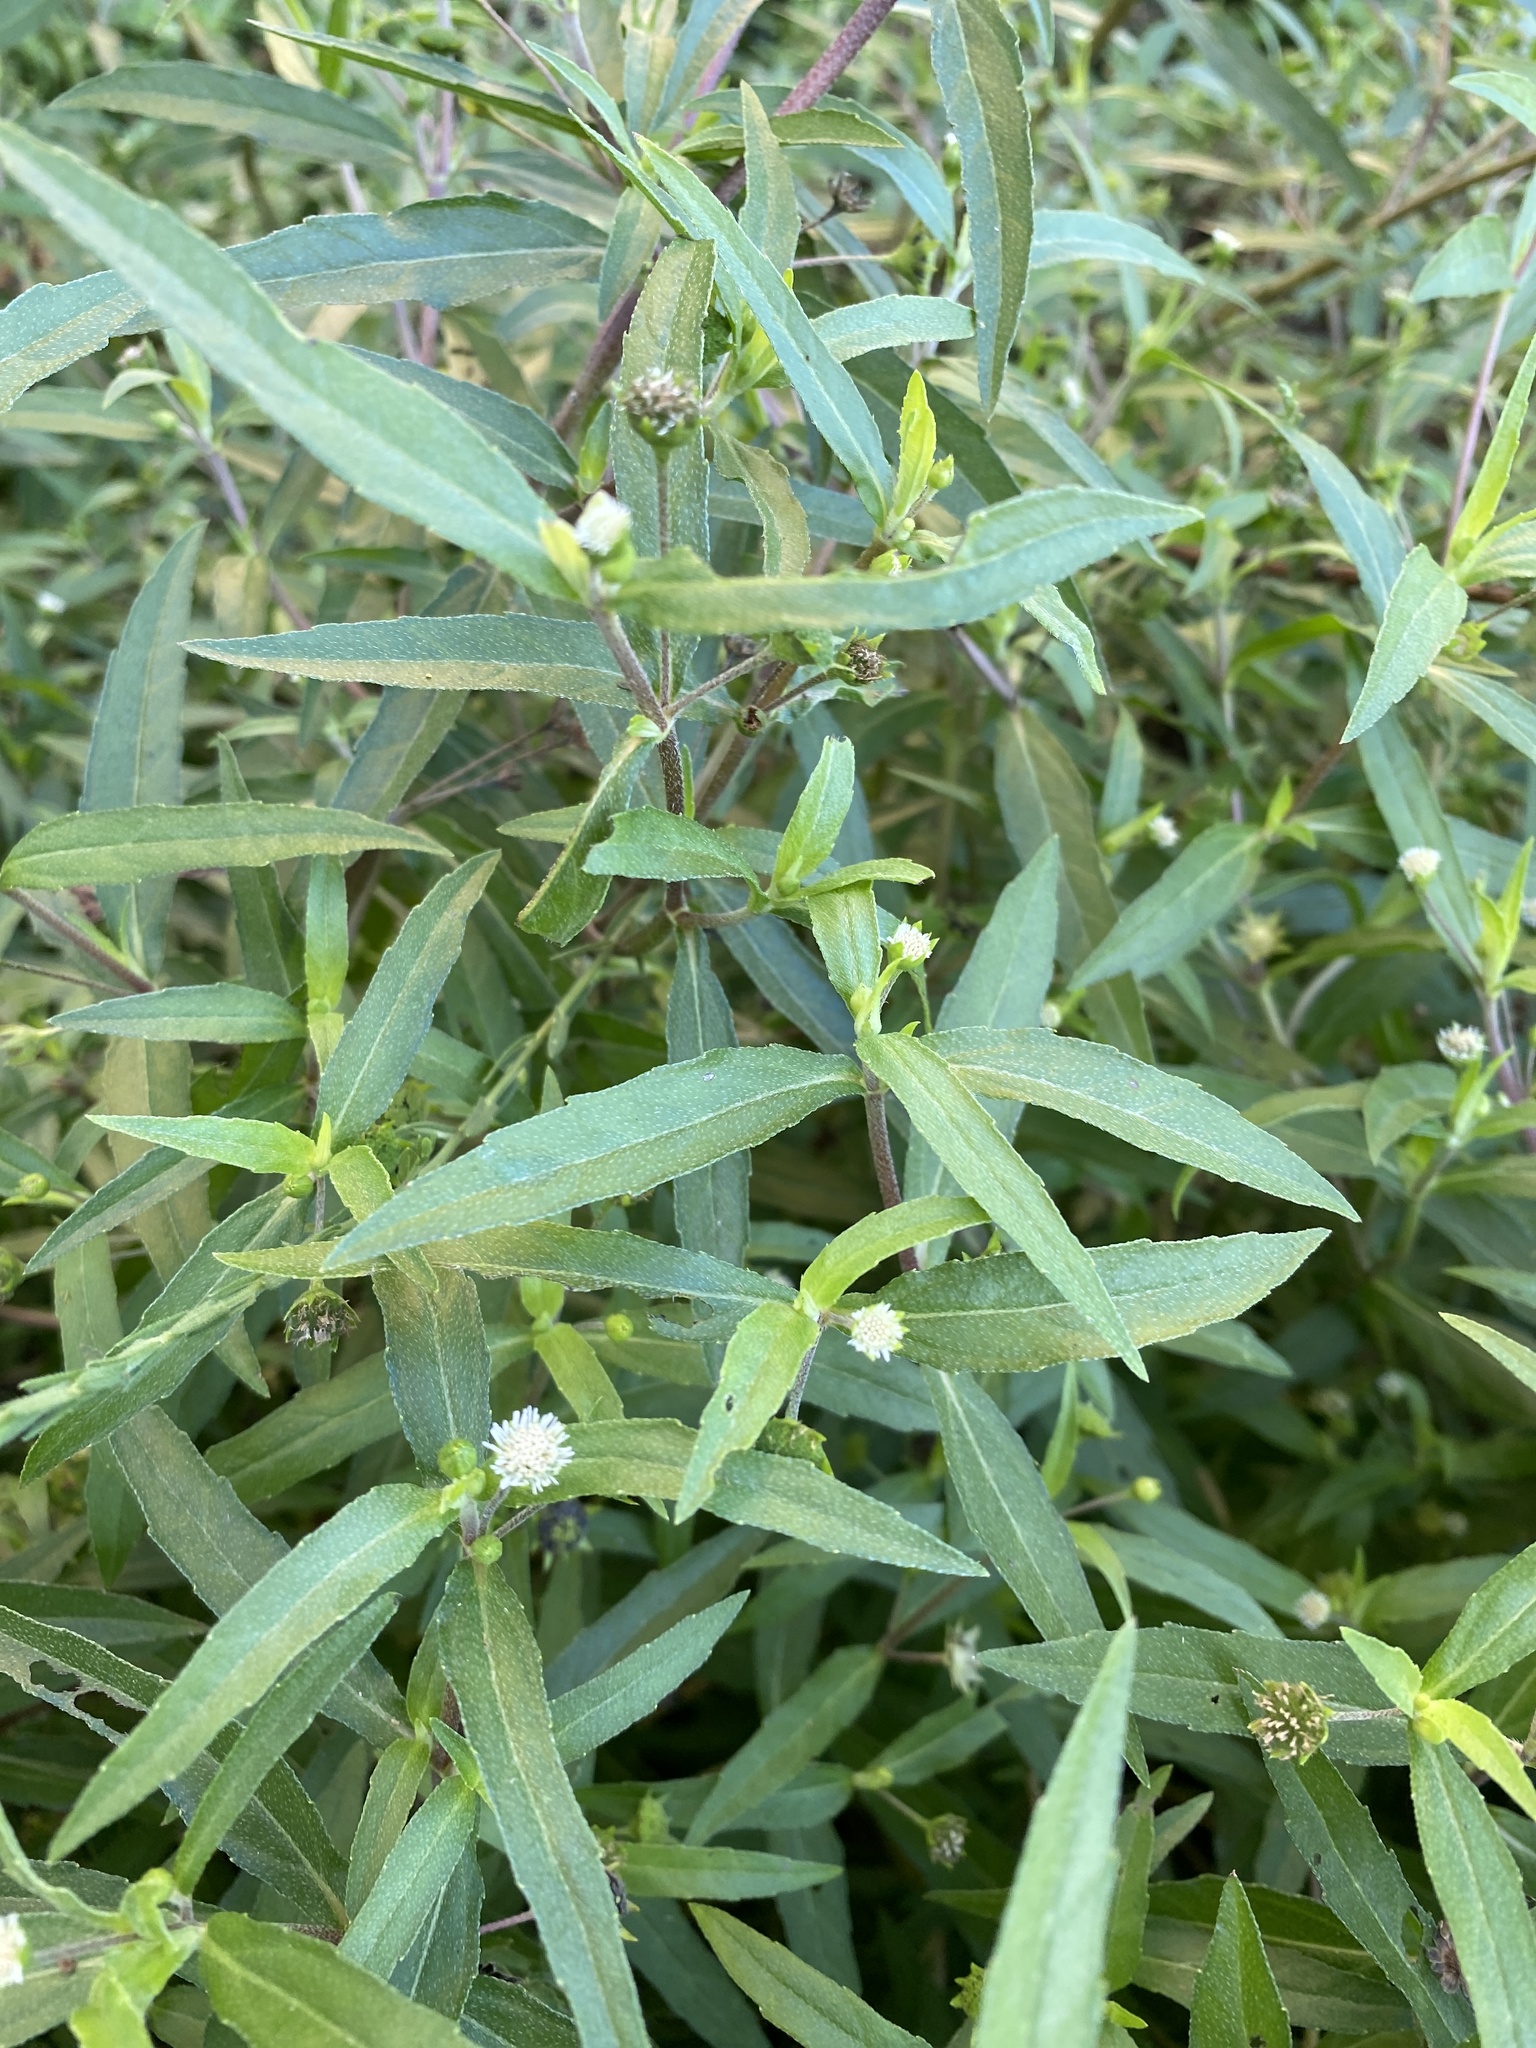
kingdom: Plantae
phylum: Tracheophyta
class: Magnoliopsida
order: Asterales
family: Asteraceae
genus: Eclipta
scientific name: Eclipta prostrata
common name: False daisy
